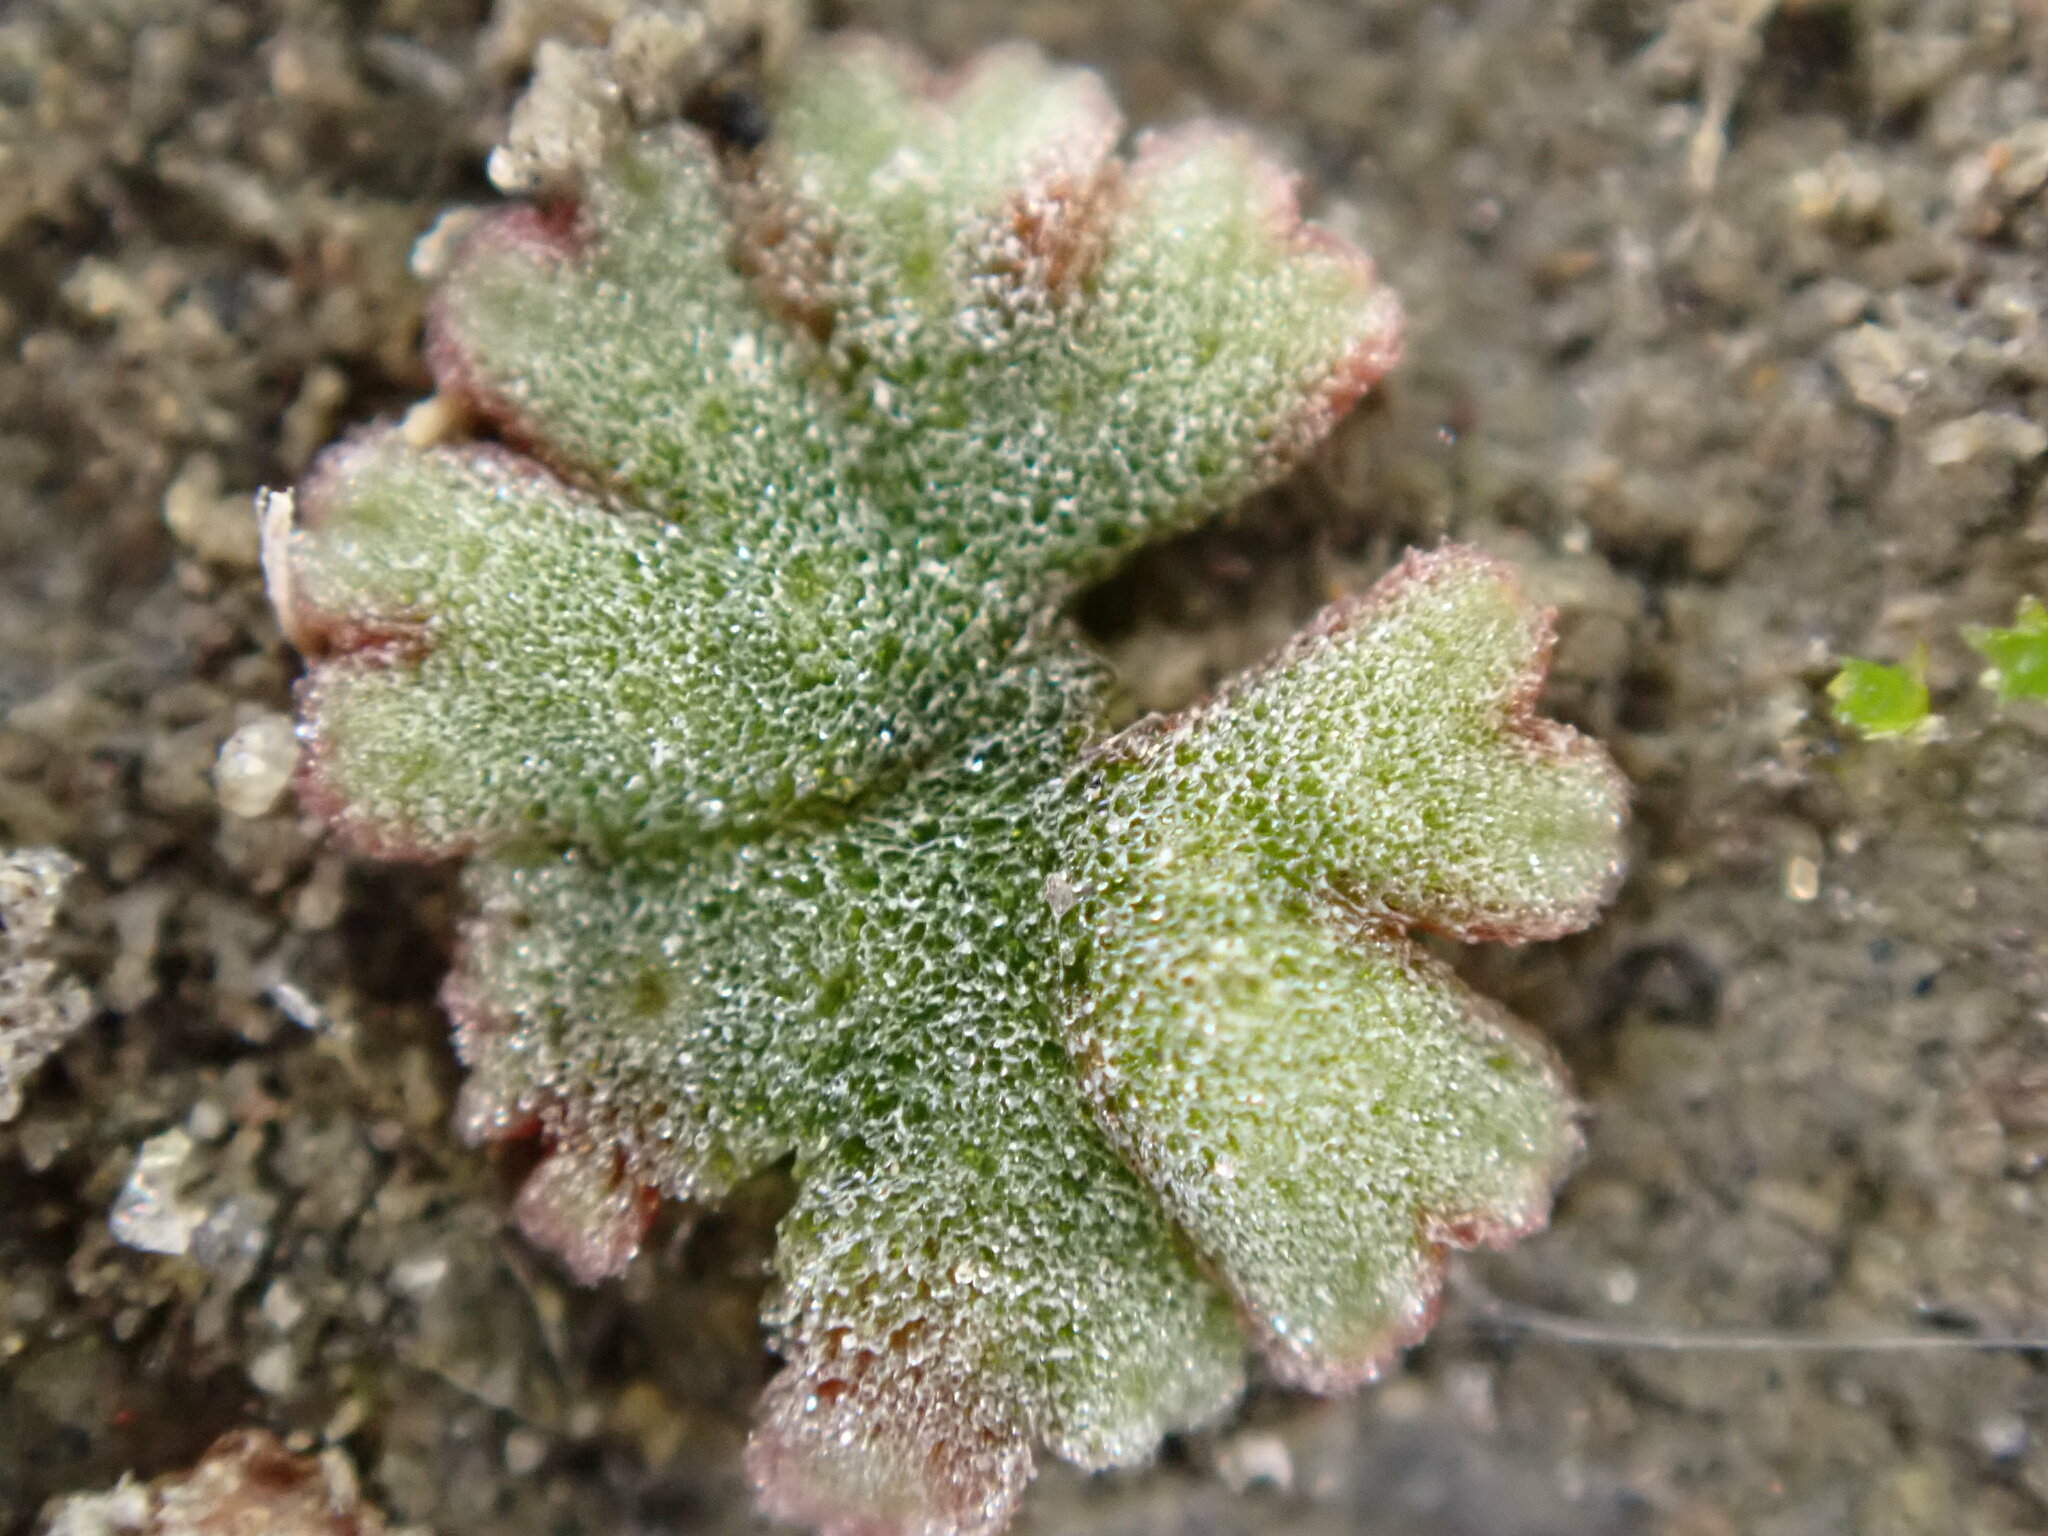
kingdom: Plantae
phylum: Marchantiophyta
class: Marchantiopsida
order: Marchantiales
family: Ricciaceae
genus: Riccia
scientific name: Riccia frostii
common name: Frost s crystalwort
